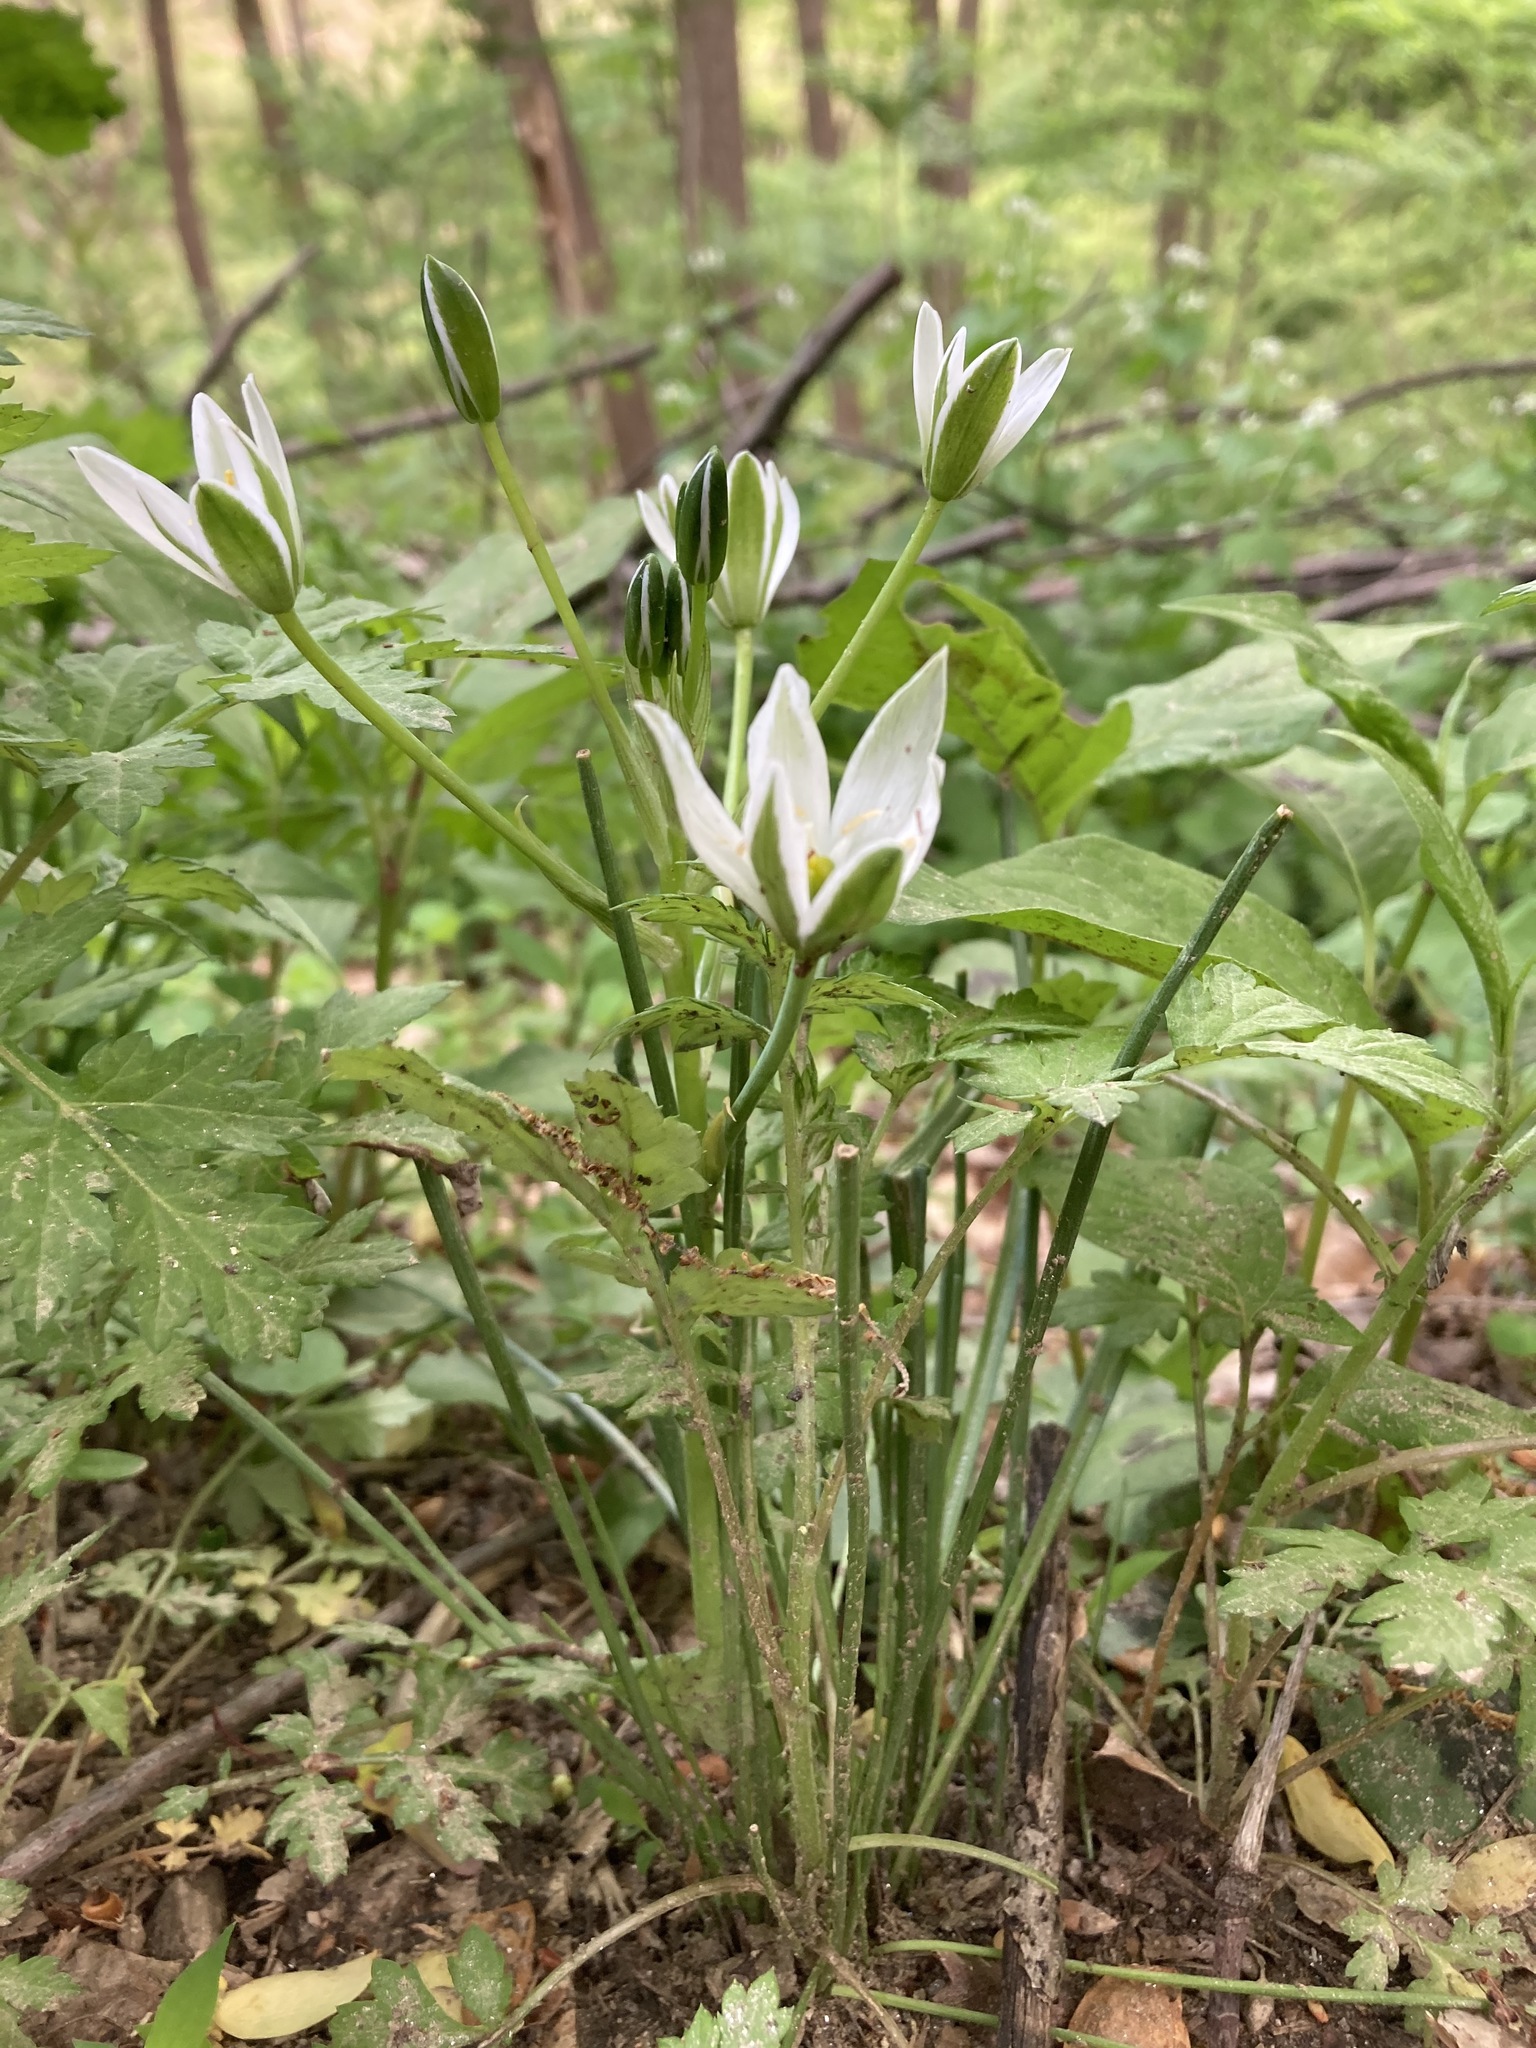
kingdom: Plantae
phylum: Tracheophyta
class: Liliopsida
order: Asparagales
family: Asparagaceae
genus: Ornithogalum
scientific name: Ornithogalum umbellatum
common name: Garden star-of-bethlehem
